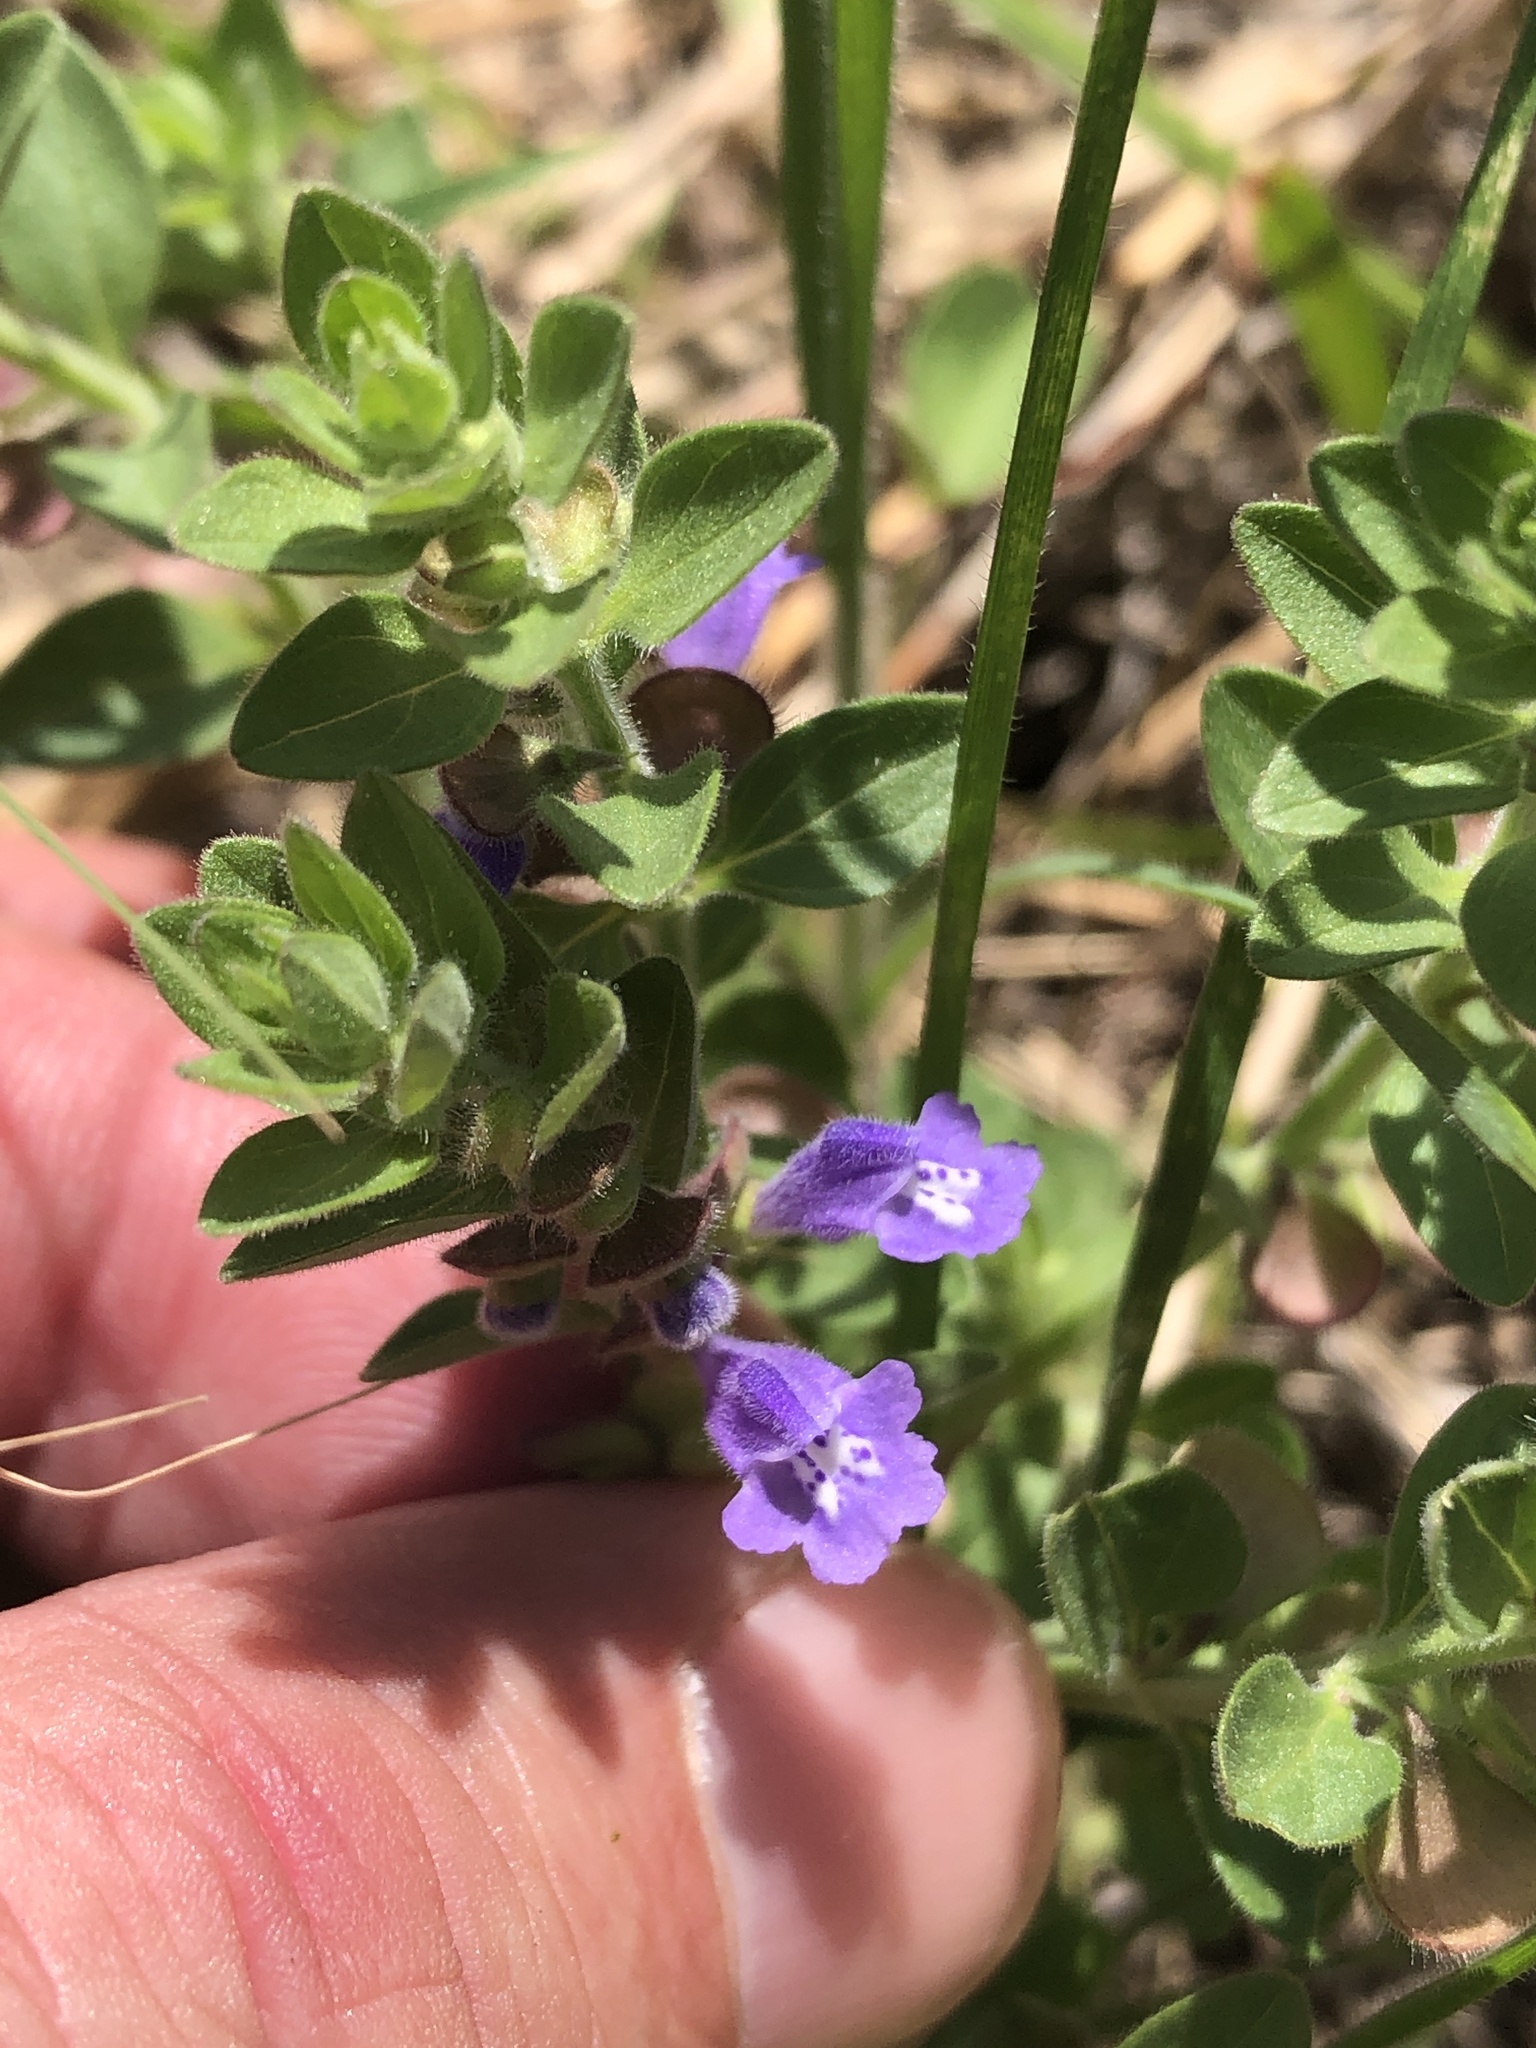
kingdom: Plantae
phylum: Tracheophyta
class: Magnoliopsida
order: Lamiales
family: Lamiaceae
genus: Scutellaria
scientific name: Scutellaria drummondii
